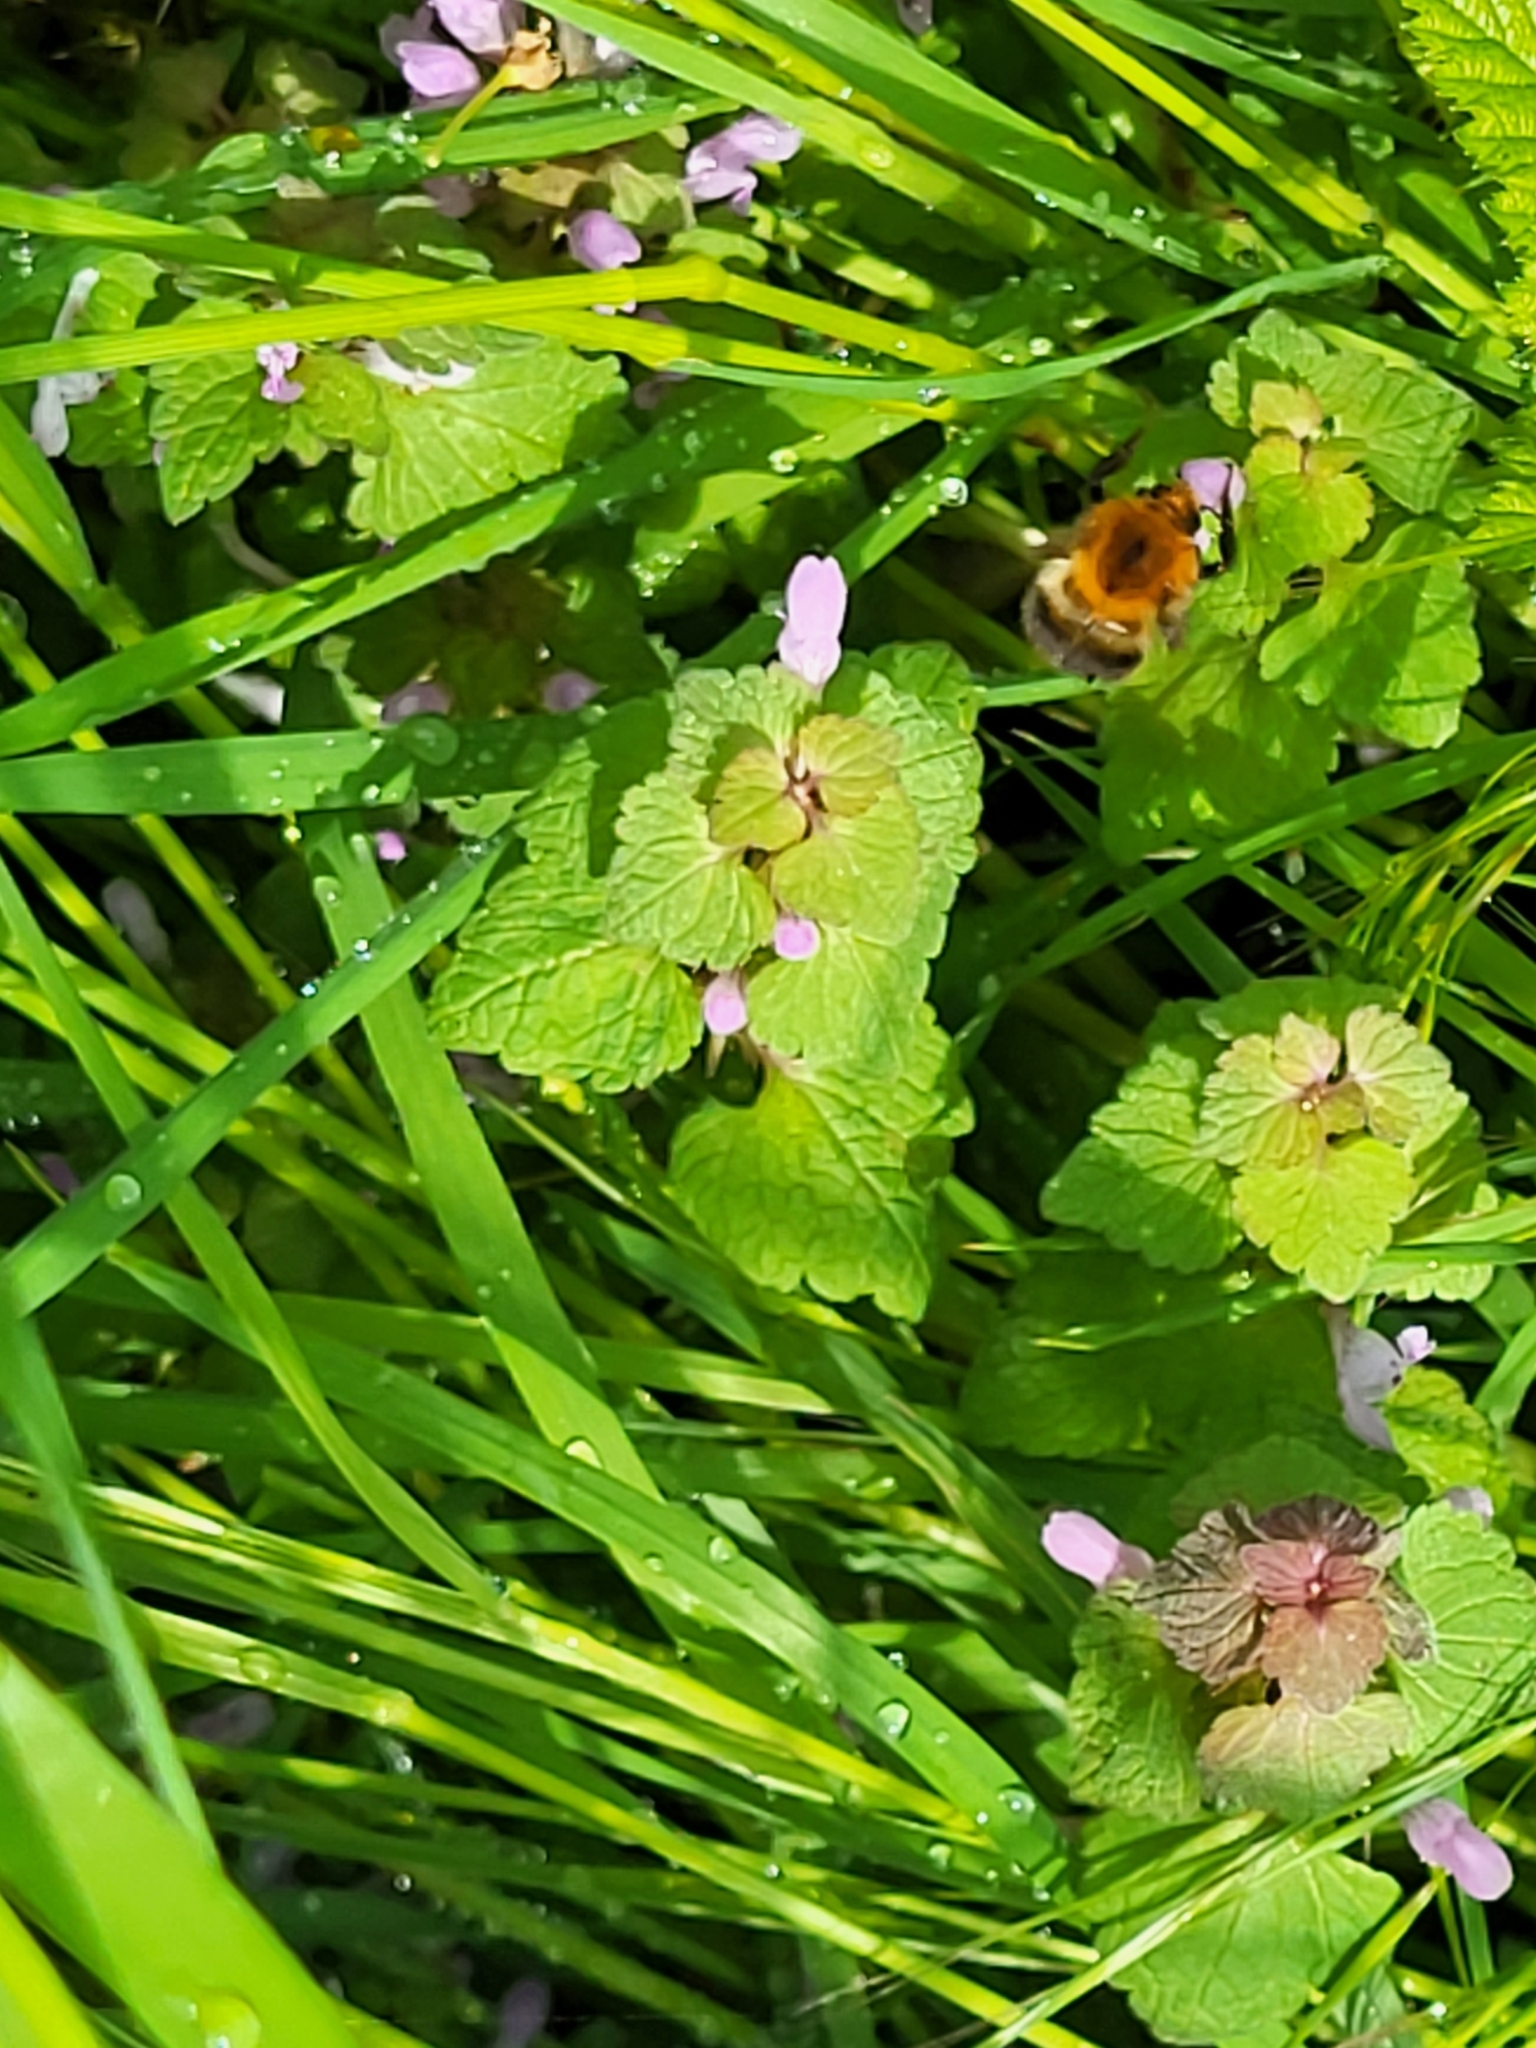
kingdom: Animalia
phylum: Arthropoda
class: Insecta
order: Hymenoptera
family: Apidae
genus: Bombus
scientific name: Bombus pascuorum
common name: Common carder bee
